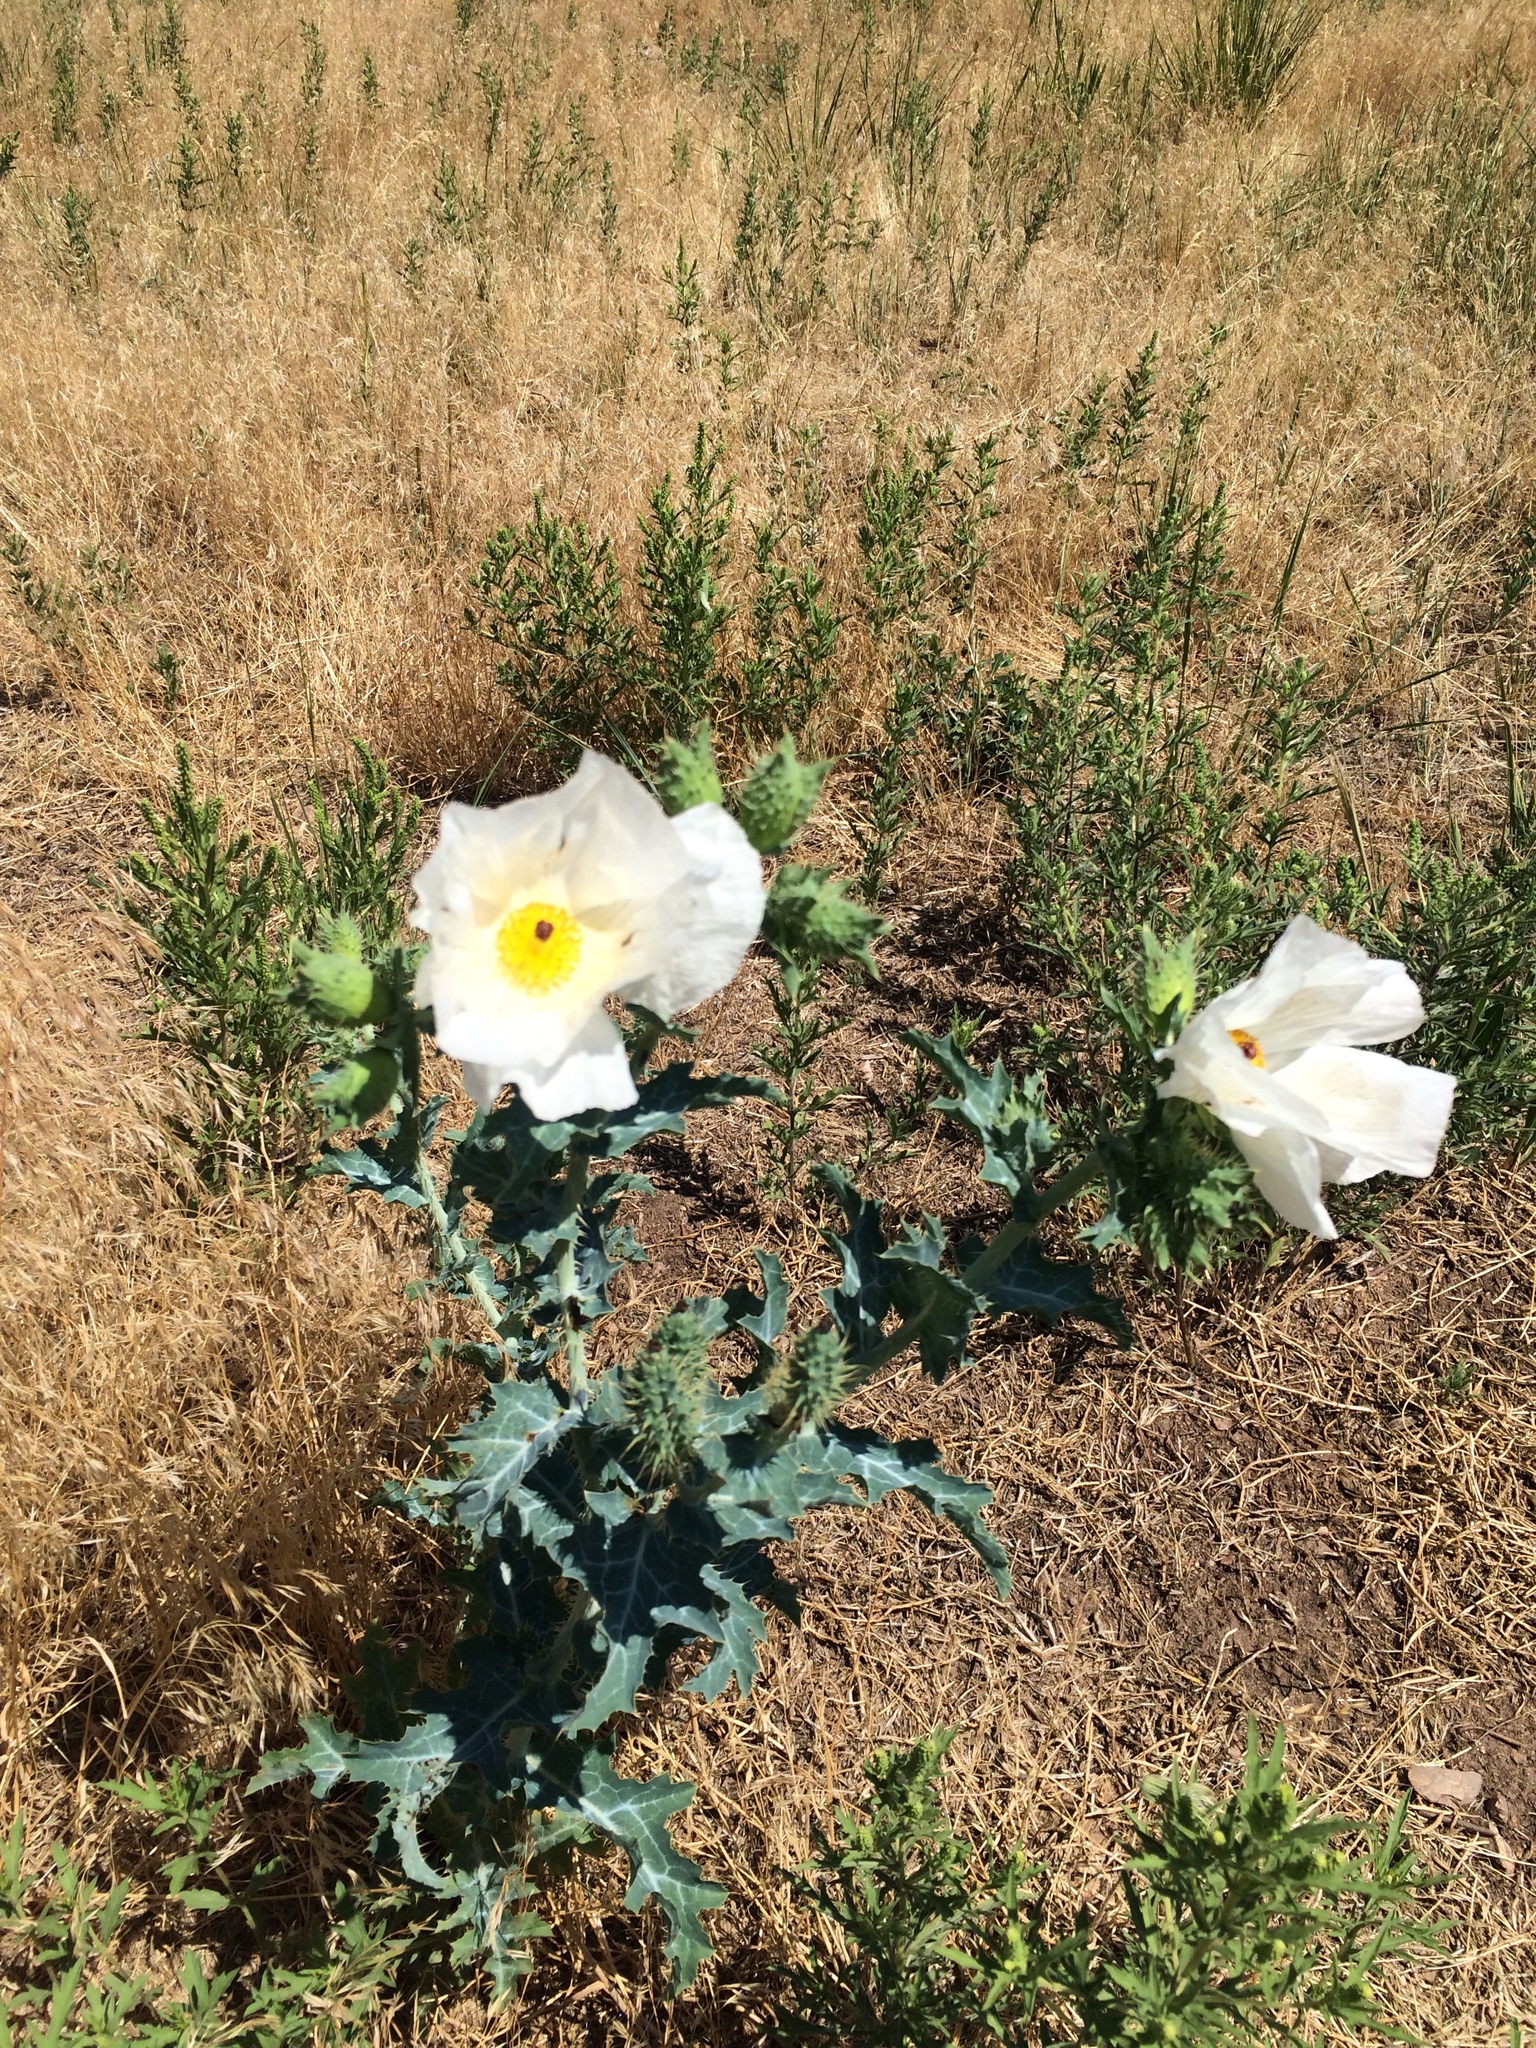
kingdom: Plantae
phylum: Tracheophyta
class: Magnoliopsida
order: Ranunculales
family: Papaveraceae
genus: Argemone
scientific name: Argemone polyanthemos
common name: Plains prickly-poppy
